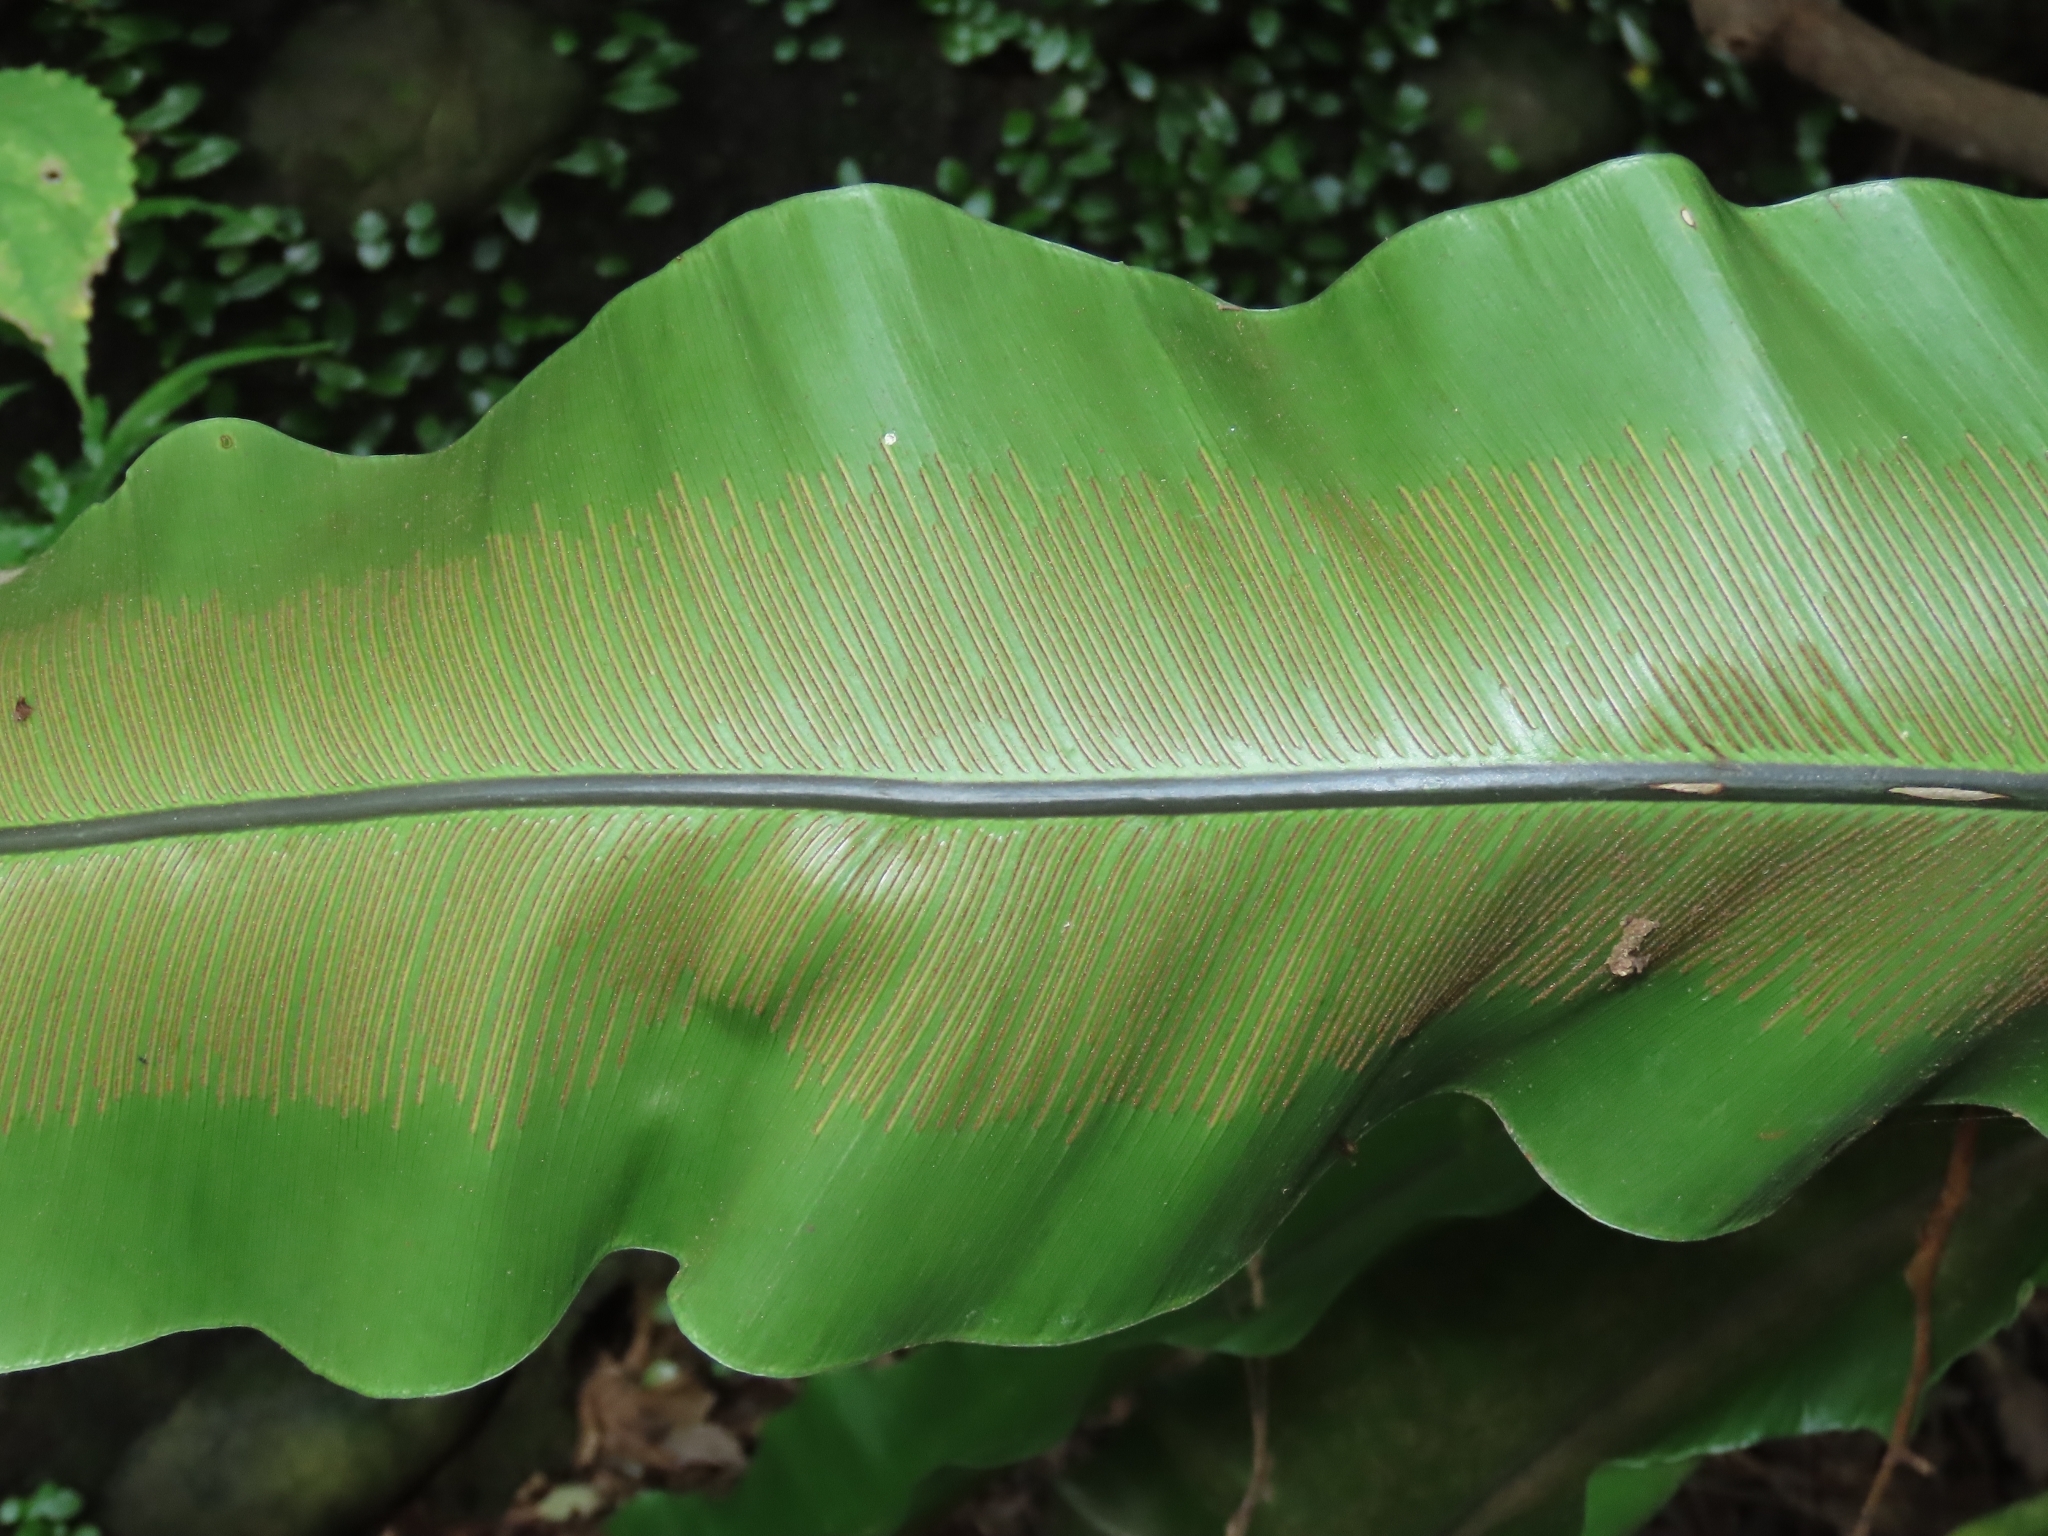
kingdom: Plantae
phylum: Tracheophyta
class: Polypodiopsida
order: Polypodiales
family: Aspleniaceae
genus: Asplenium
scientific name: Asplenium nidus
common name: Bird's-nest fern
